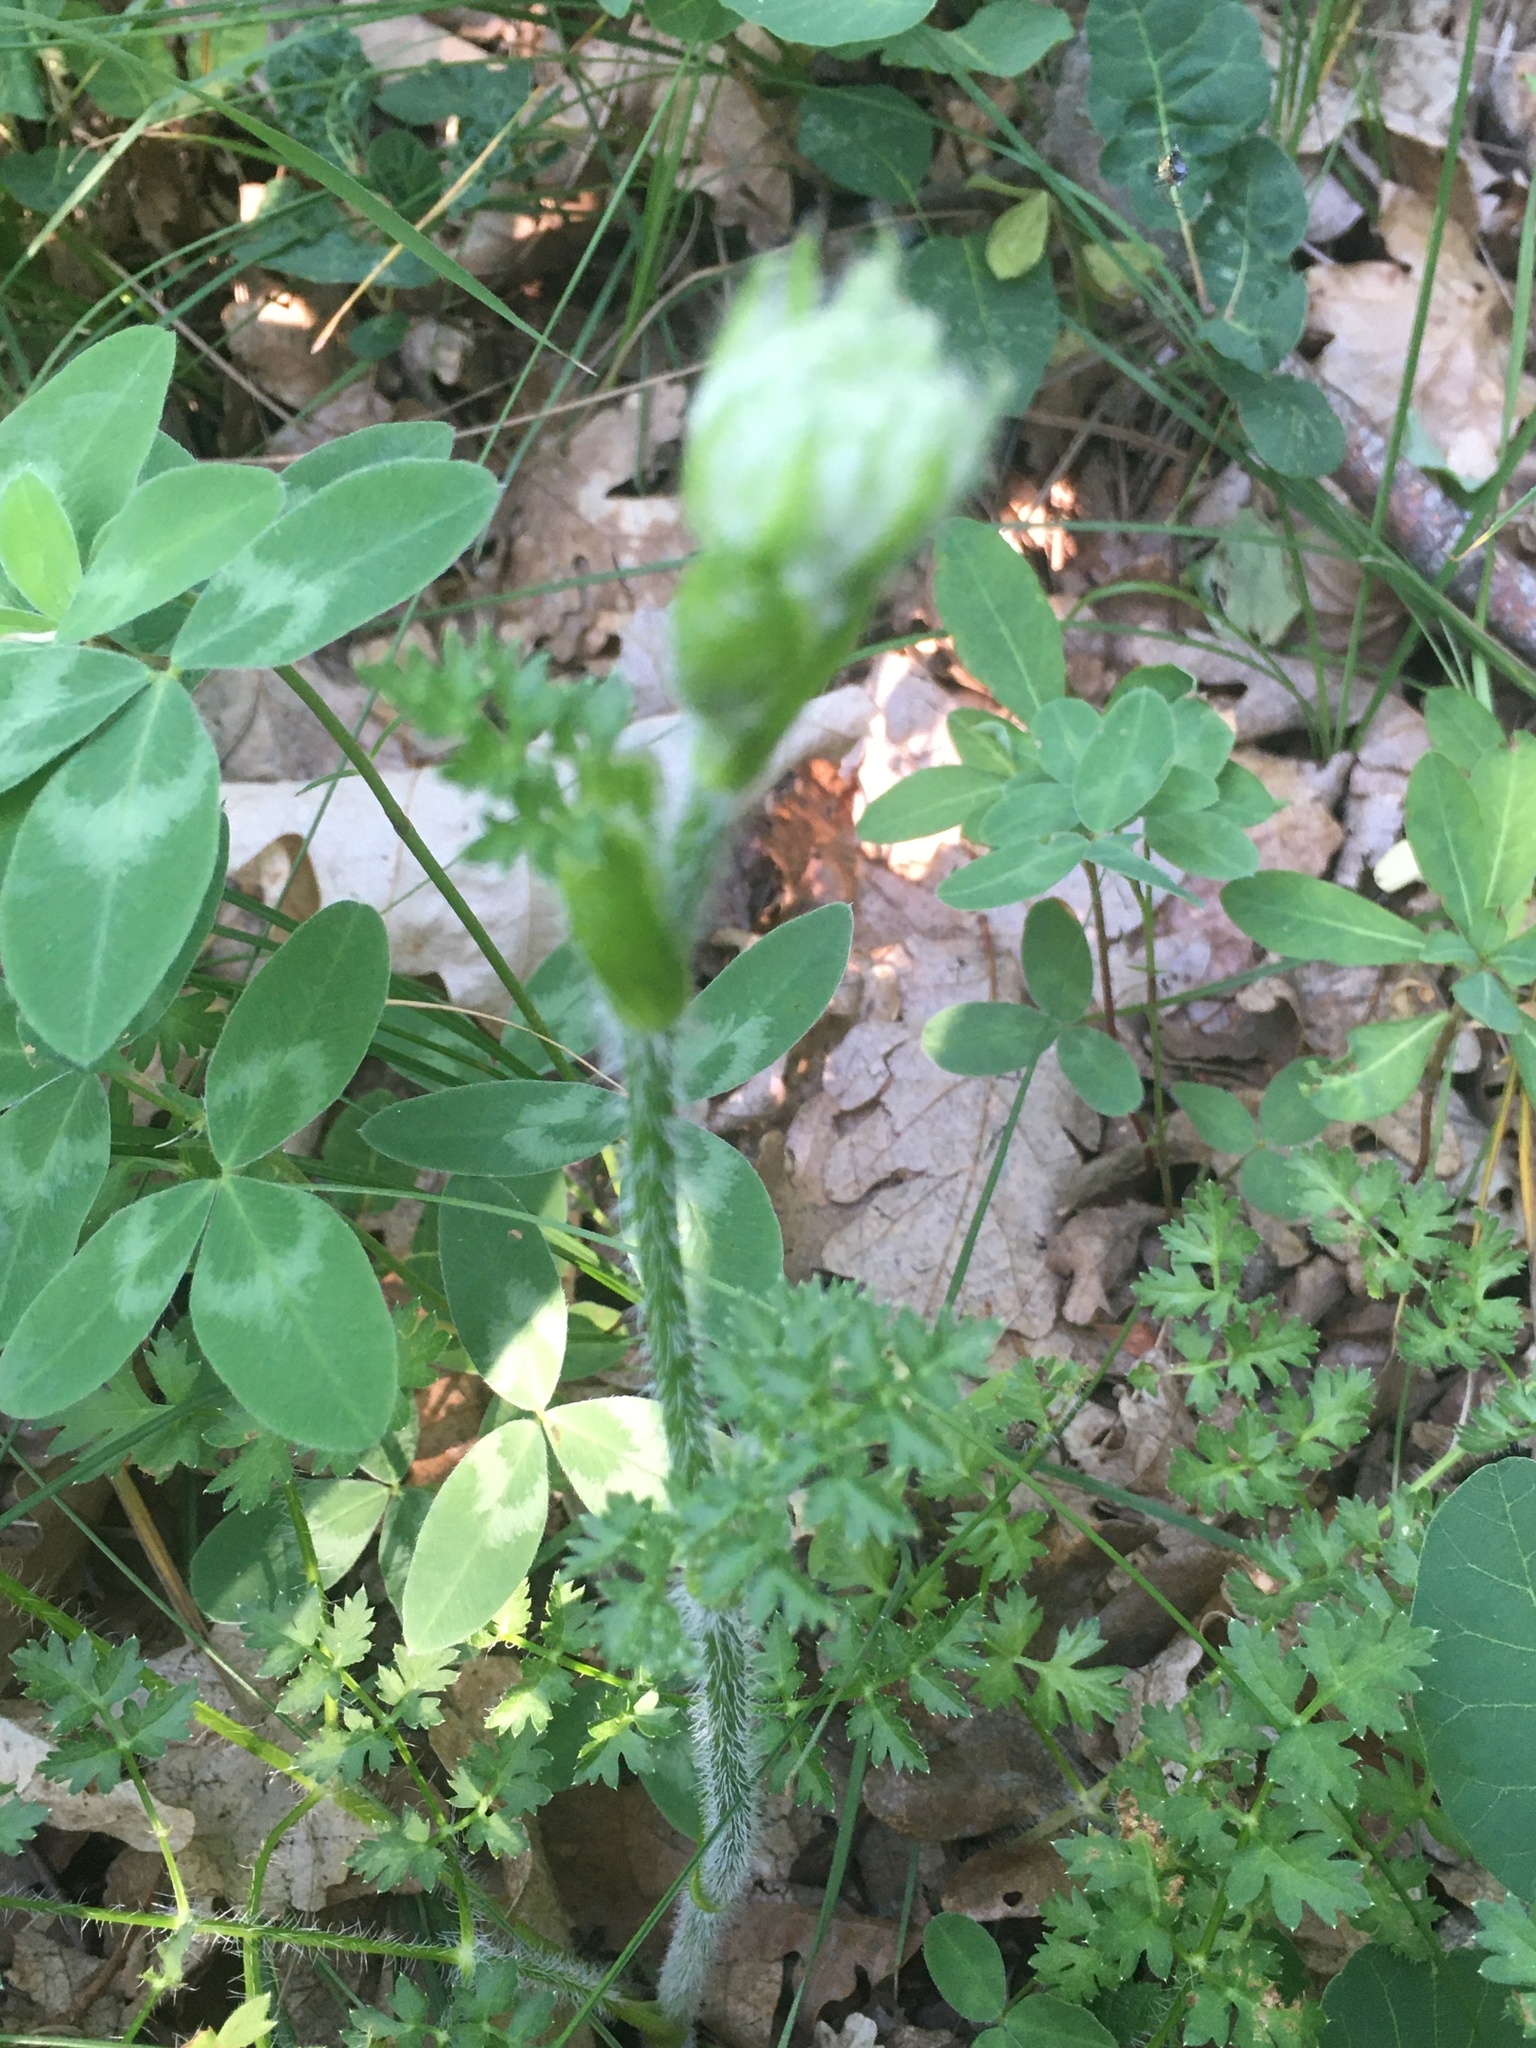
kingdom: Plantae
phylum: Tracheophyta
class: Magnoliopsida
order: Apiales
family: Apiaceae
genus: Silphiodaucus
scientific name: Silphiodaucus hispidus
